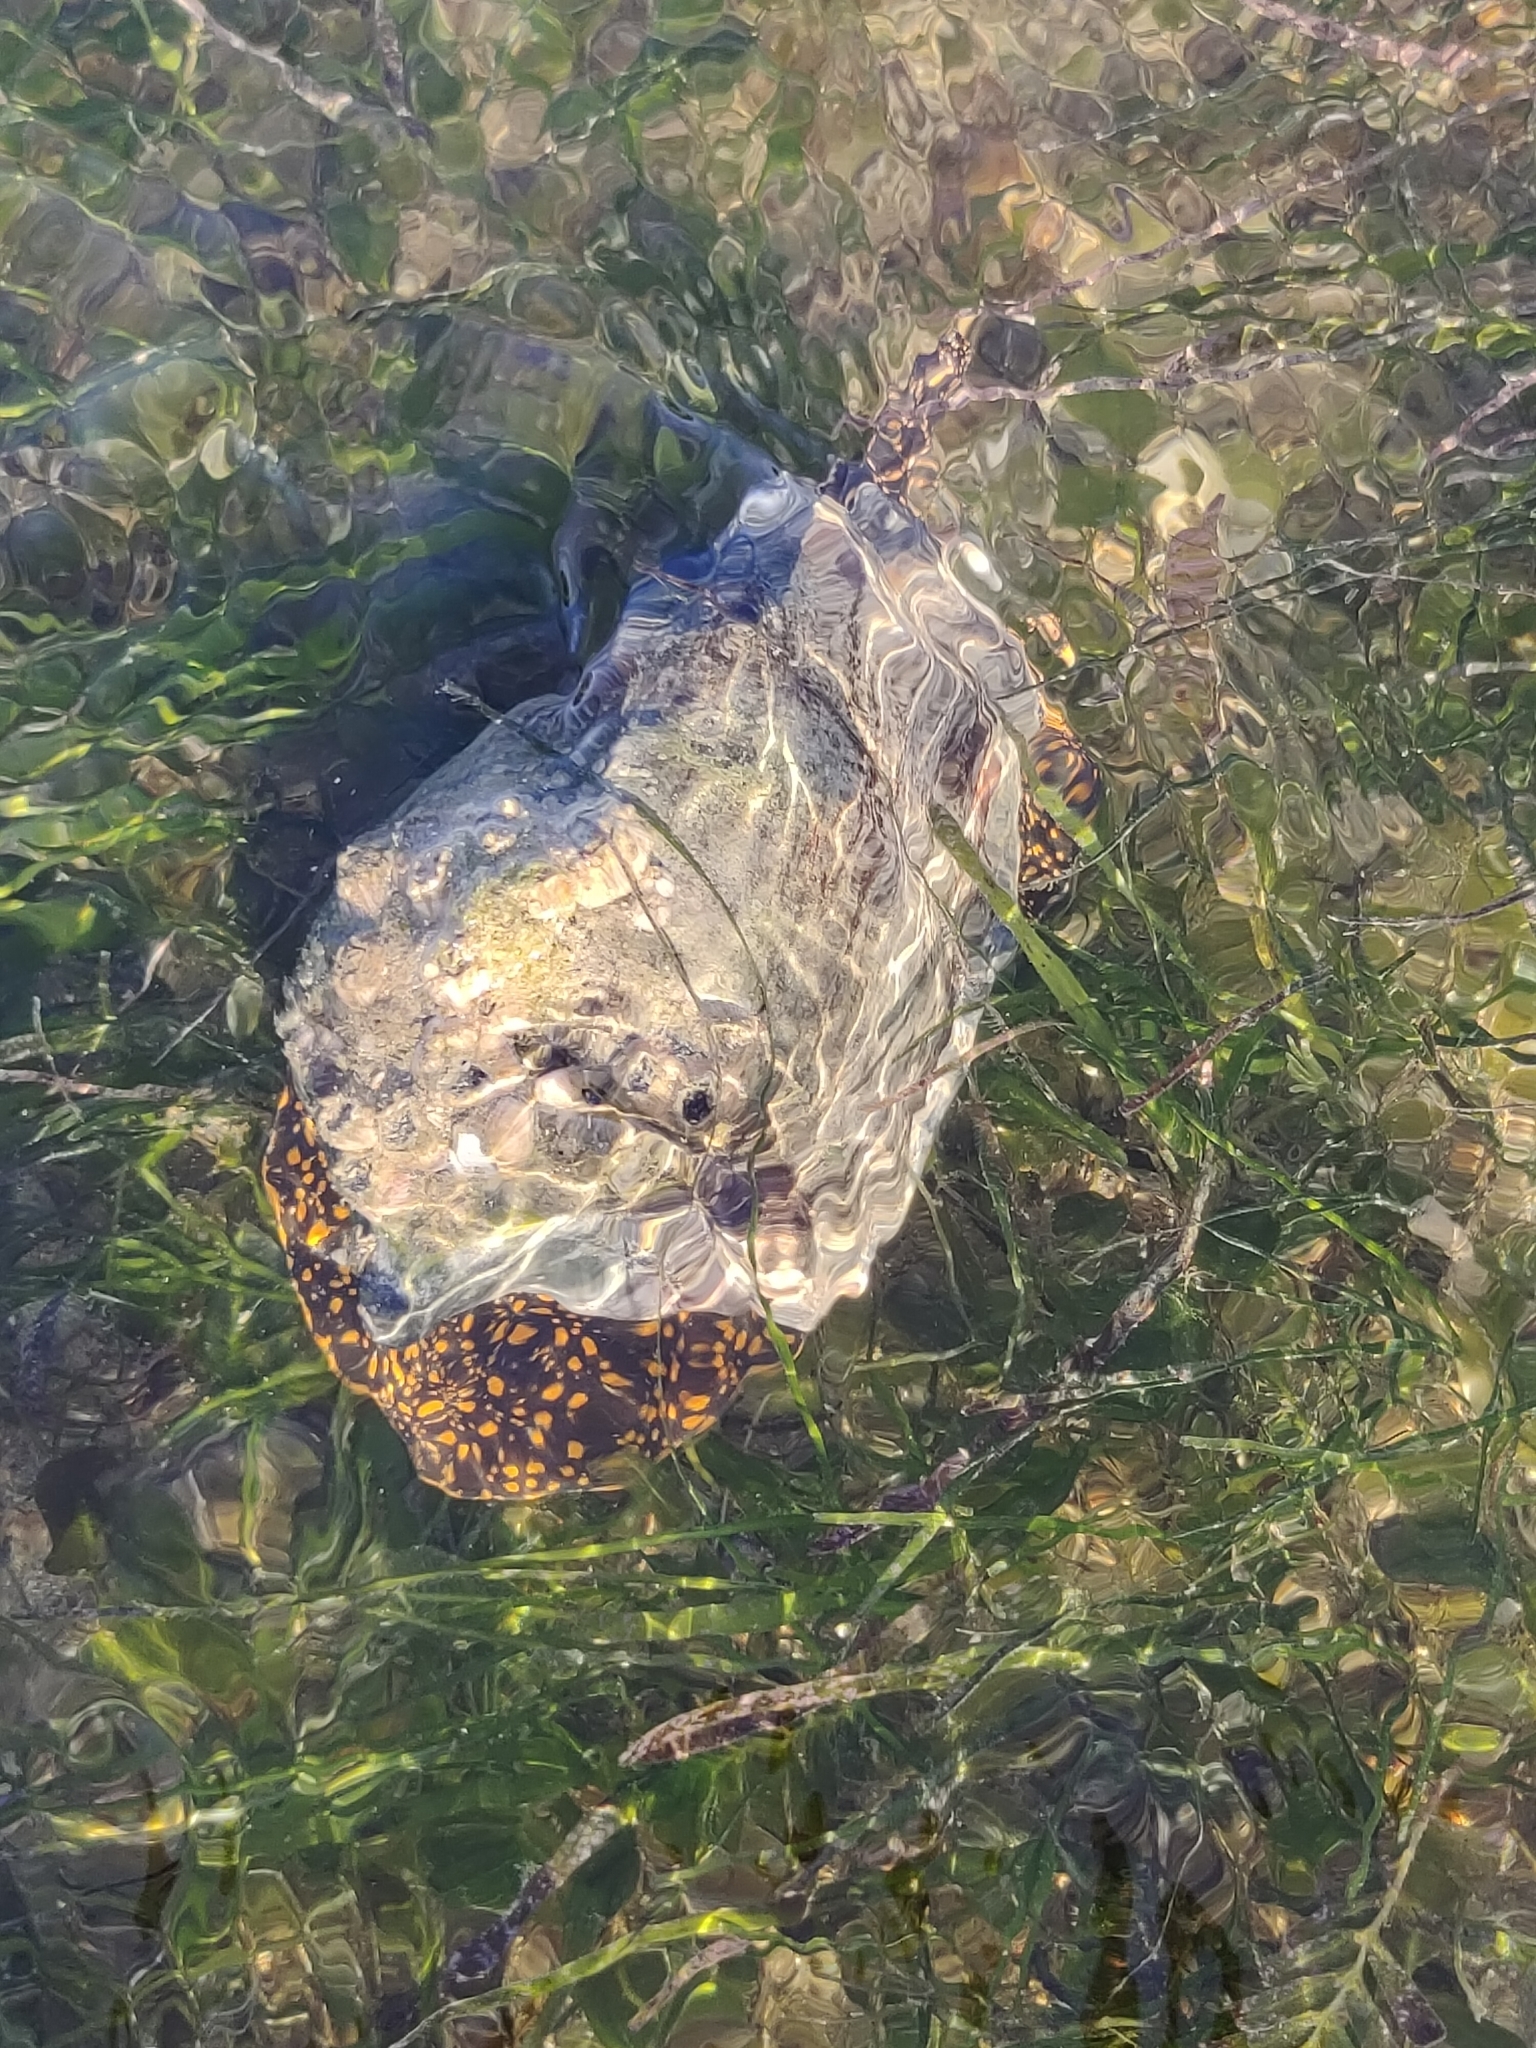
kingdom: Animalia
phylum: Mollusca
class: Gastropoda
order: Neogastropoda
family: Volutidae
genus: Cymbiola
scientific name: Cymbiola nobilis
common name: Noble volute
